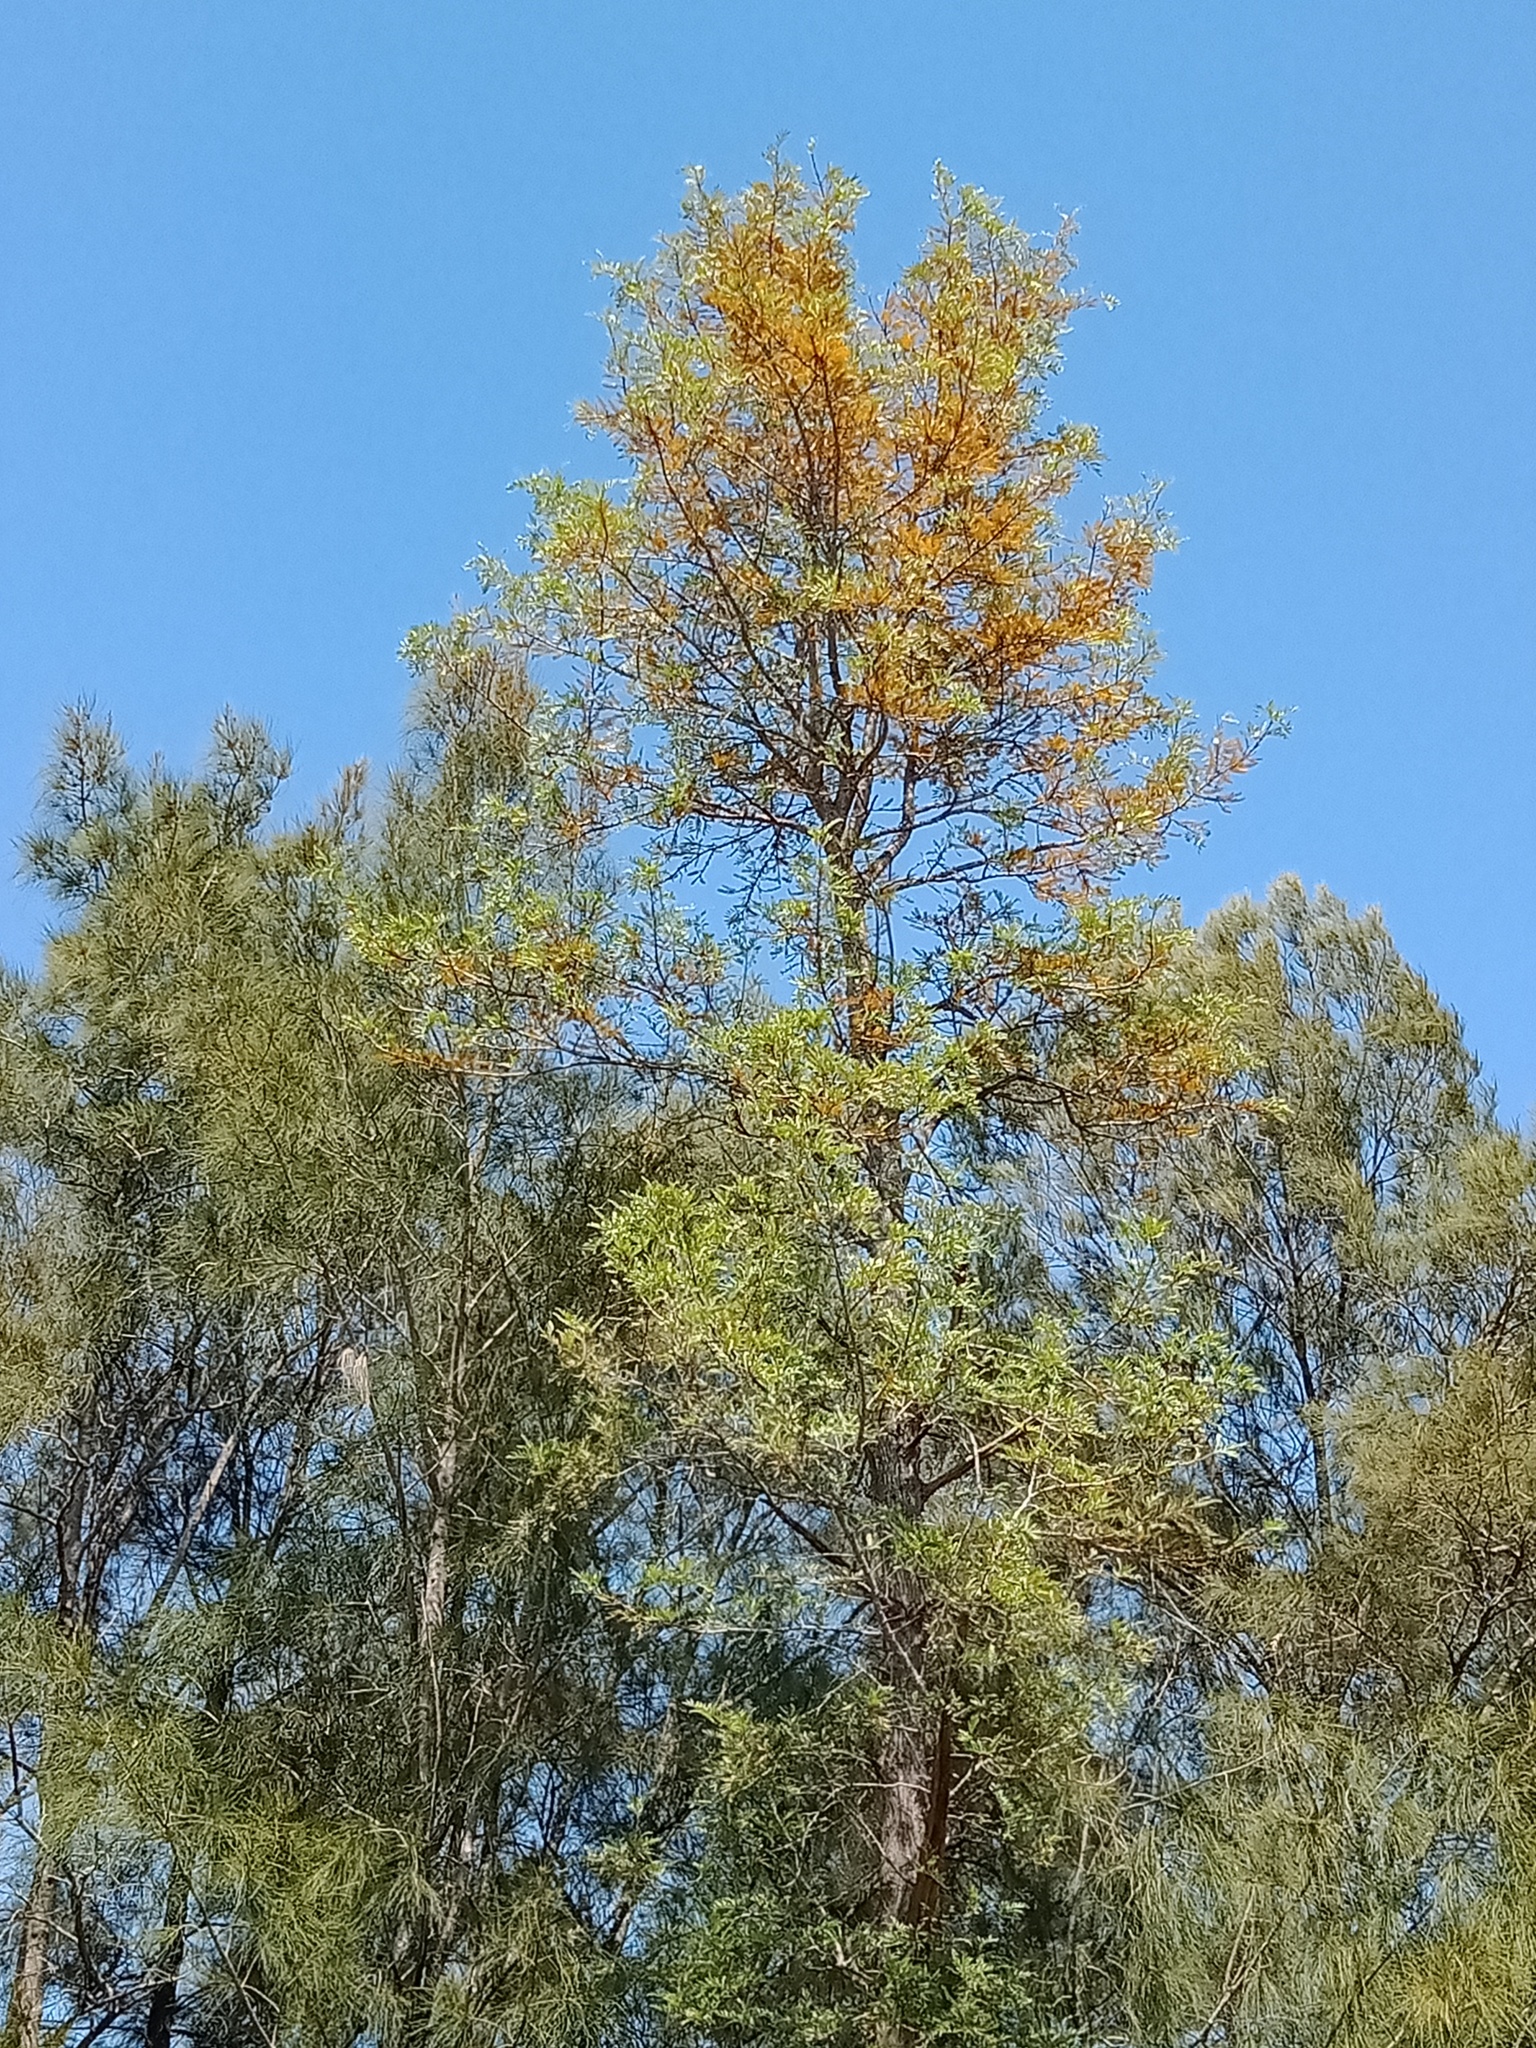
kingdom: Plantae
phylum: Tracheophyta
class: Magnoliopsida
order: Proteales
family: Proteaceae
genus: Grevillea
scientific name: Grevillea robusta
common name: Silkoak
